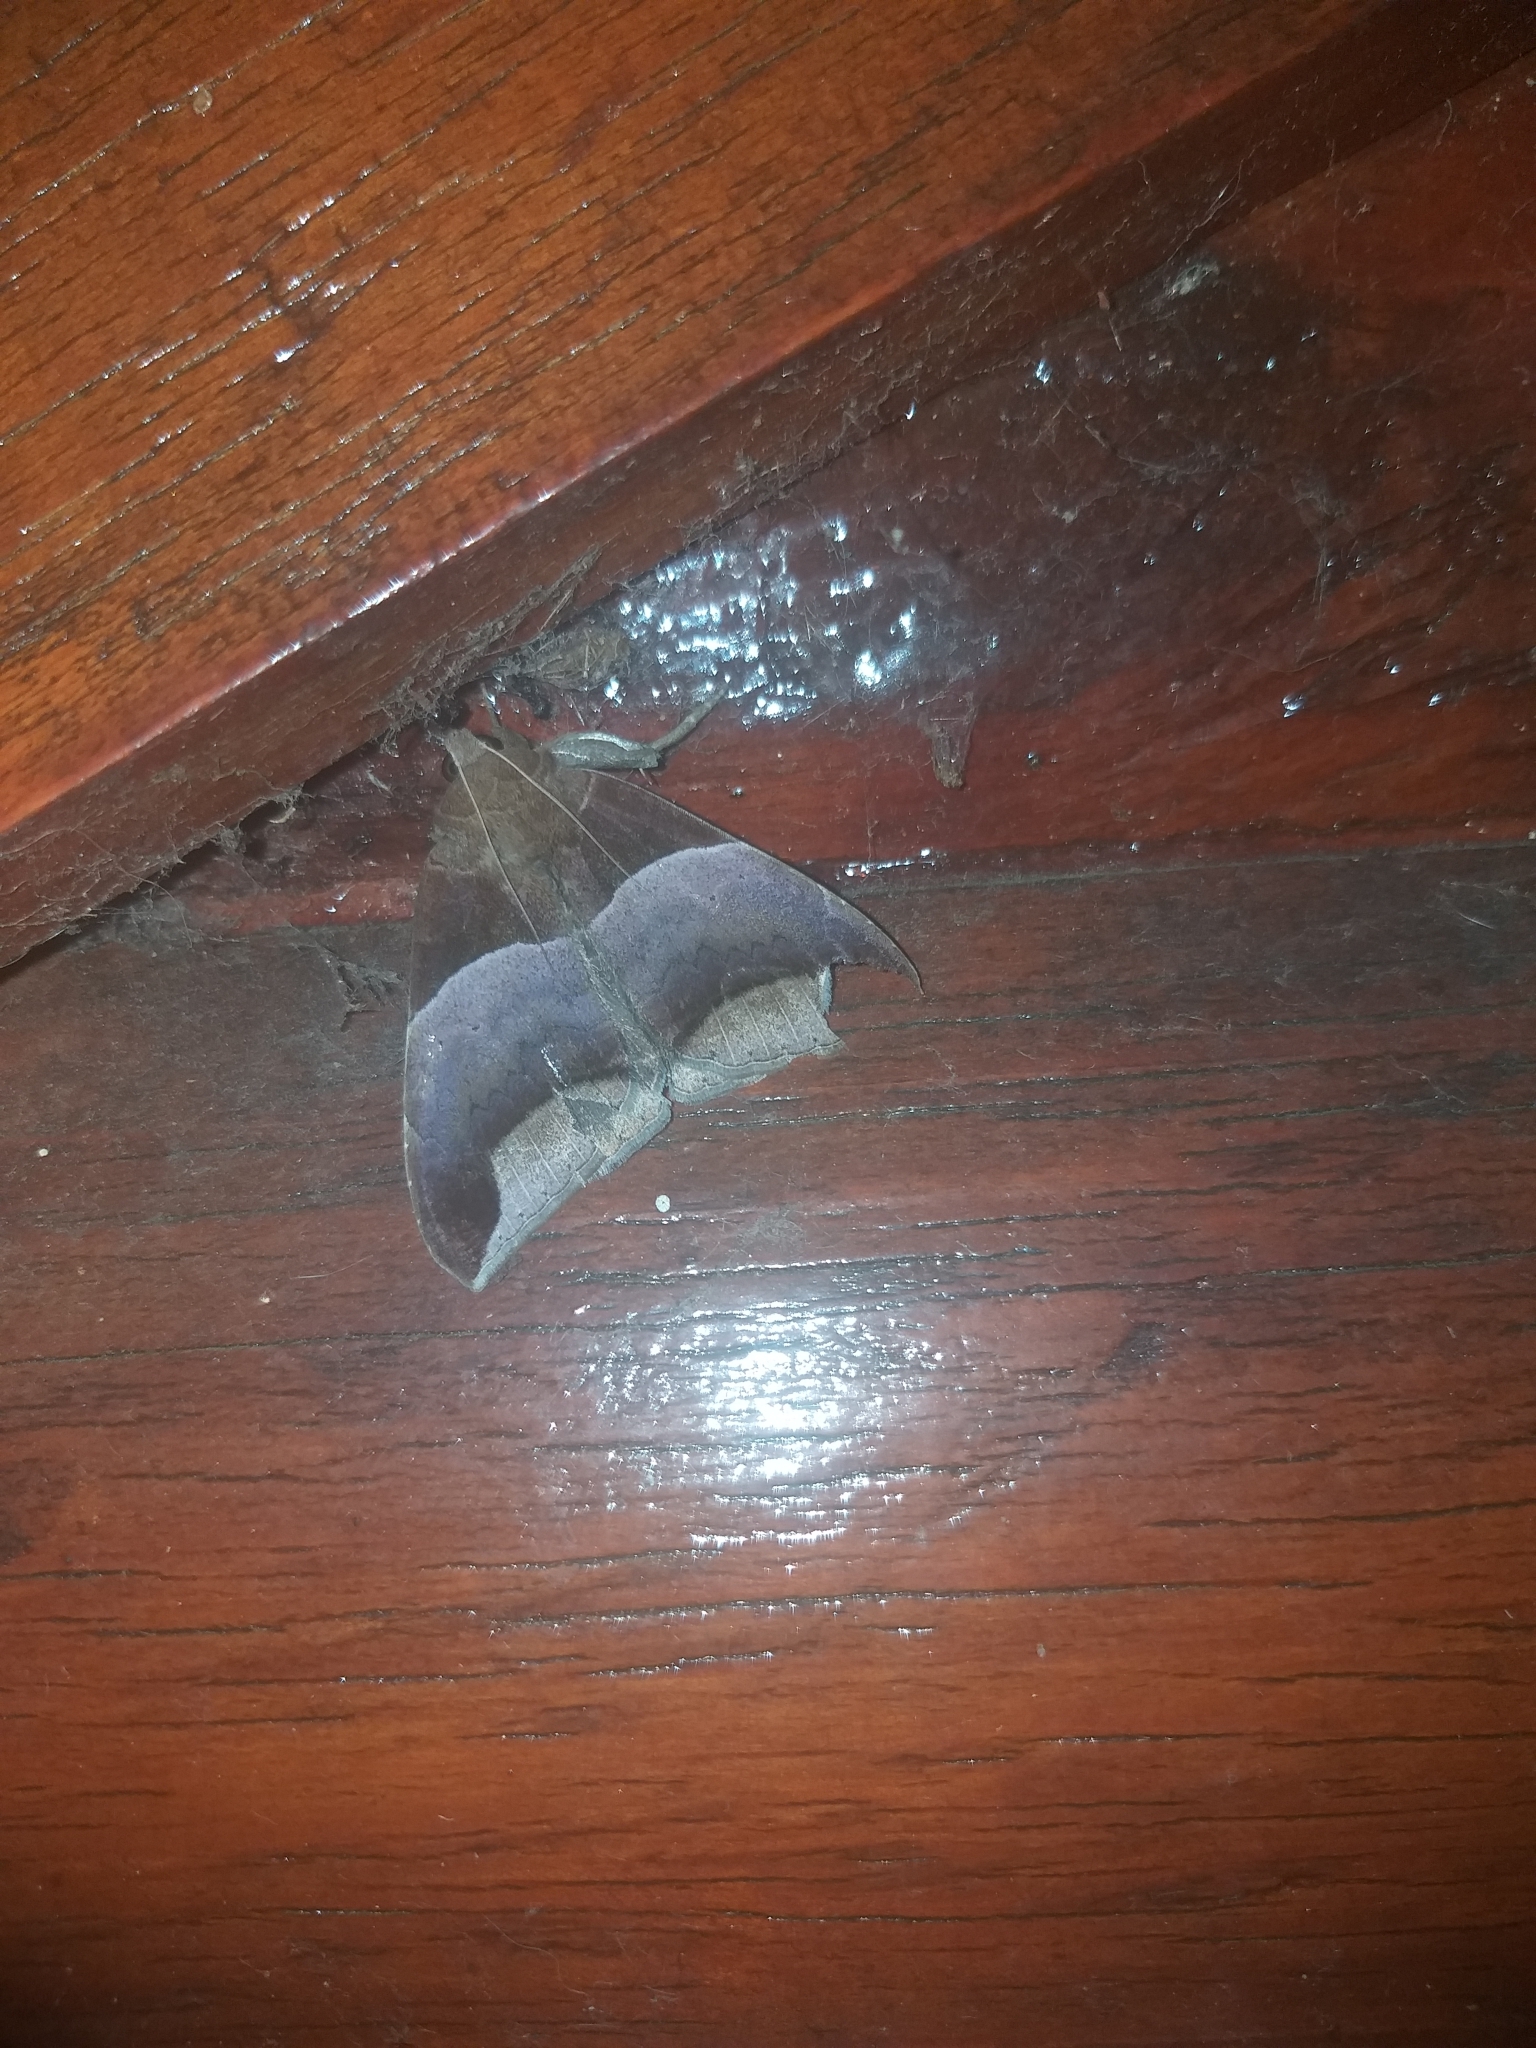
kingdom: Animalia
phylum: Arthropoda
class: Insecta
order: Lepidoptera
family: Erebidae
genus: Achaea
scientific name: Achaea echo
